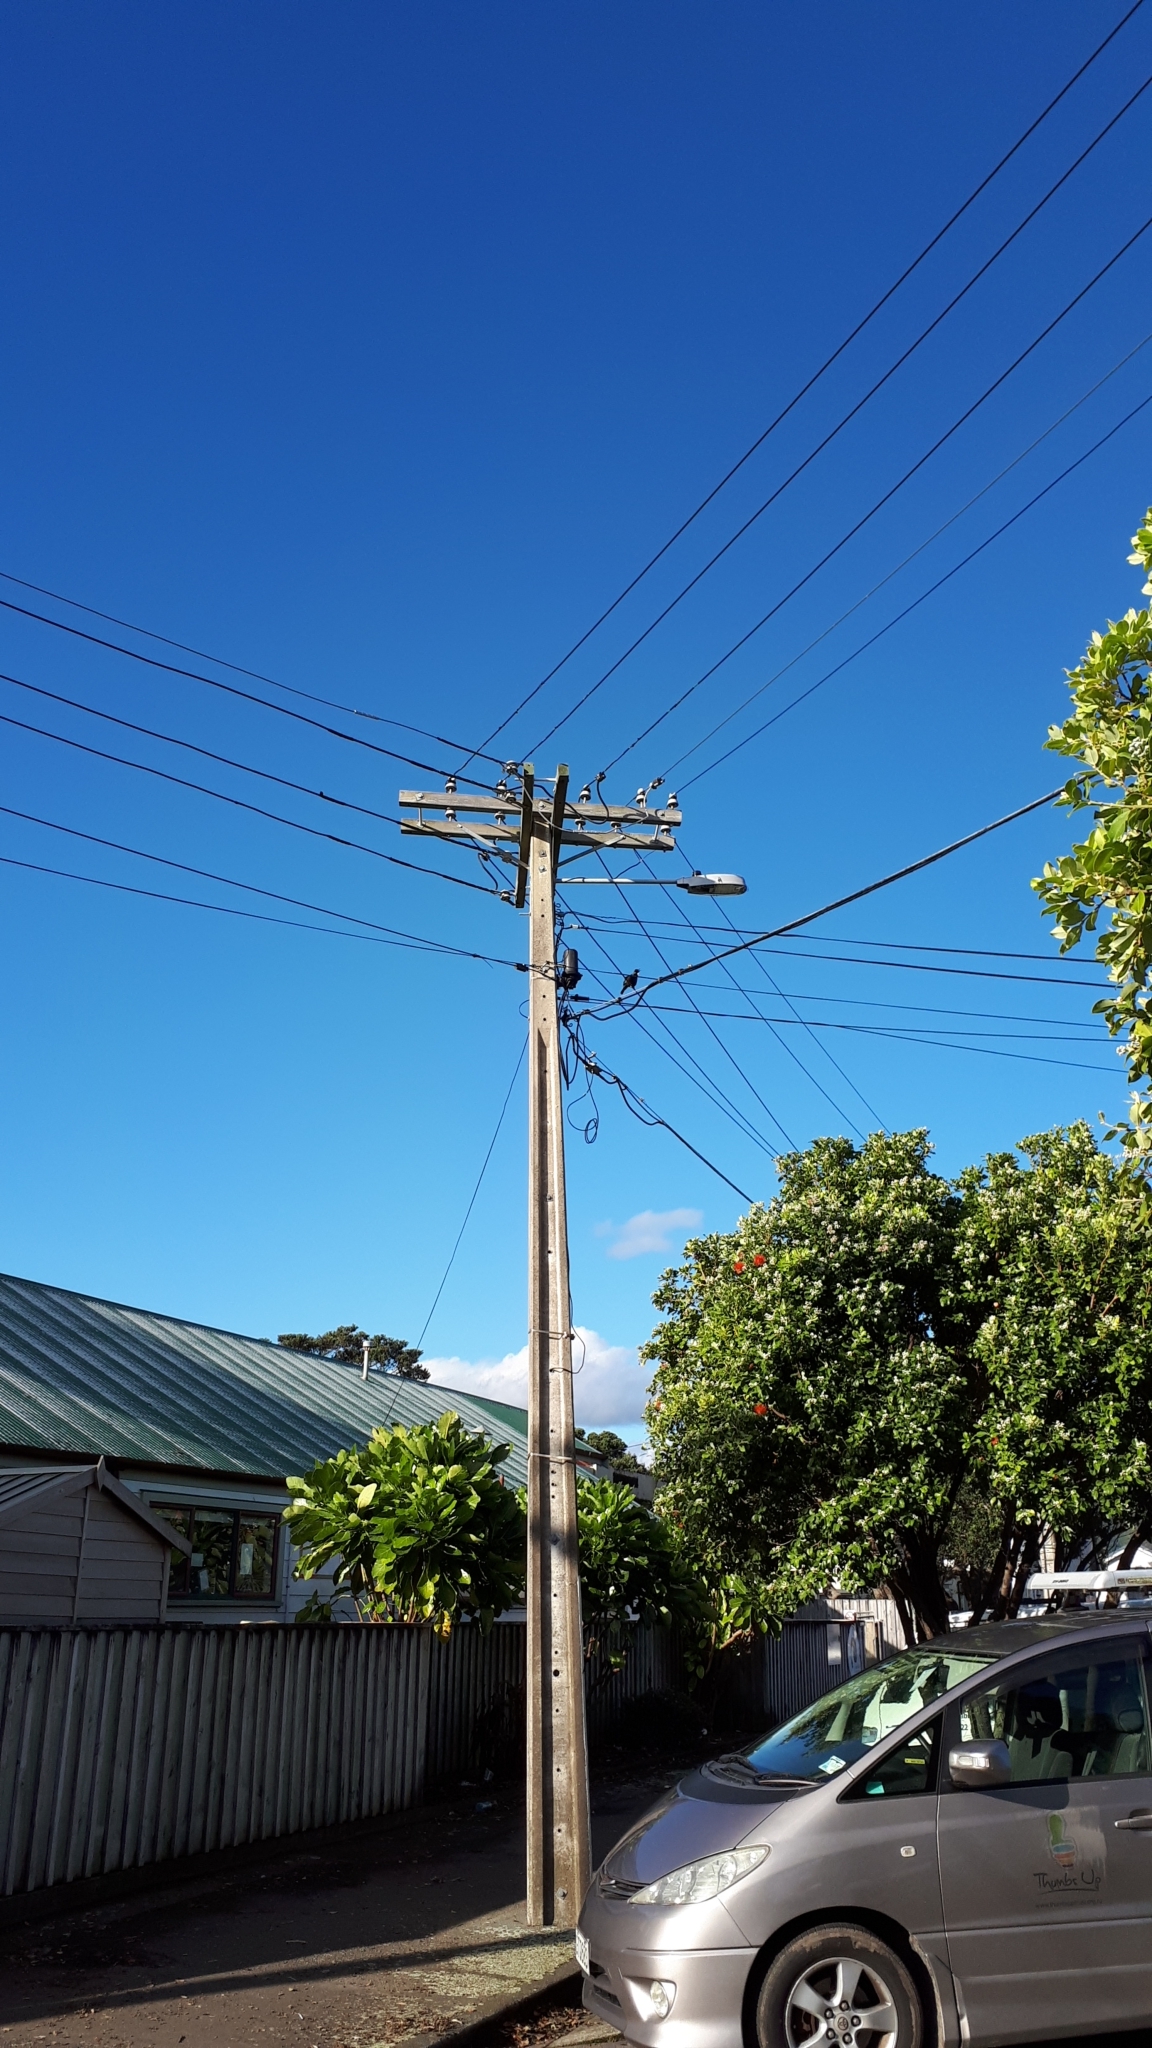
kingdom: Animalia
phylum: Chordata
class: Aves
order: Passeriformes
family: Meliphagidae
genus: Prosthemadera
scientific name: Prosthemadera novaeseelandiae
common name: Tui
